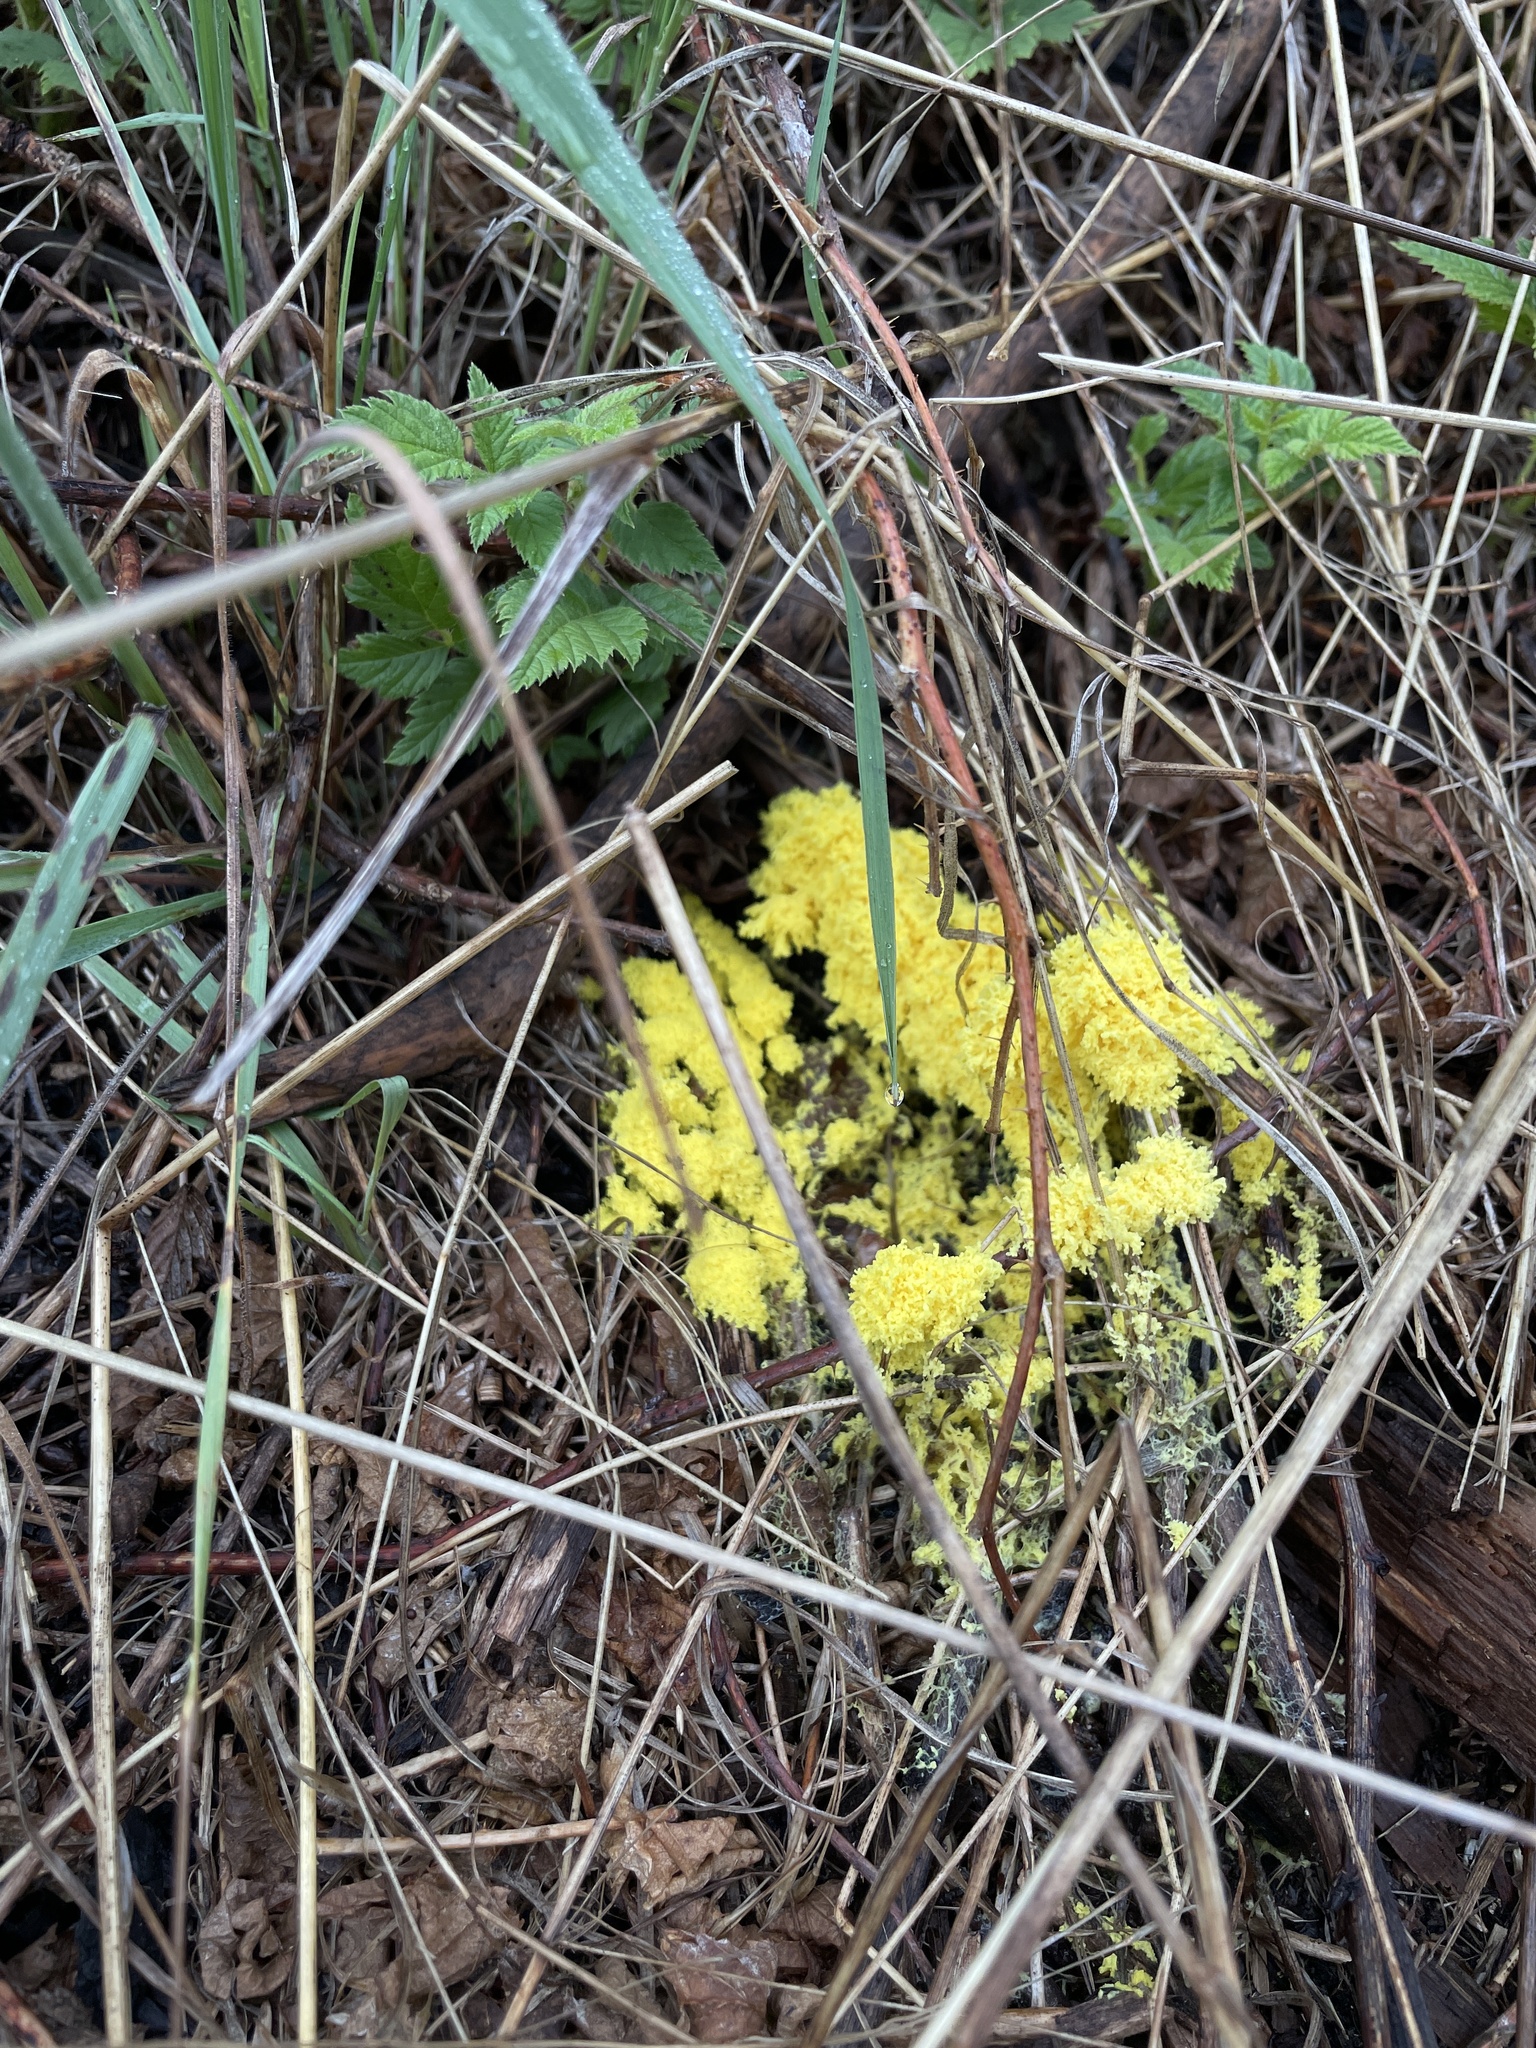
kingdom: Protozoa
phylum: Mycetozoa
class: Myxomycetes
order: Physarales
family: Physaraceae
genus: Fuligo
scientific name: Fuligo septica
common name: Dog vomit slime mold
